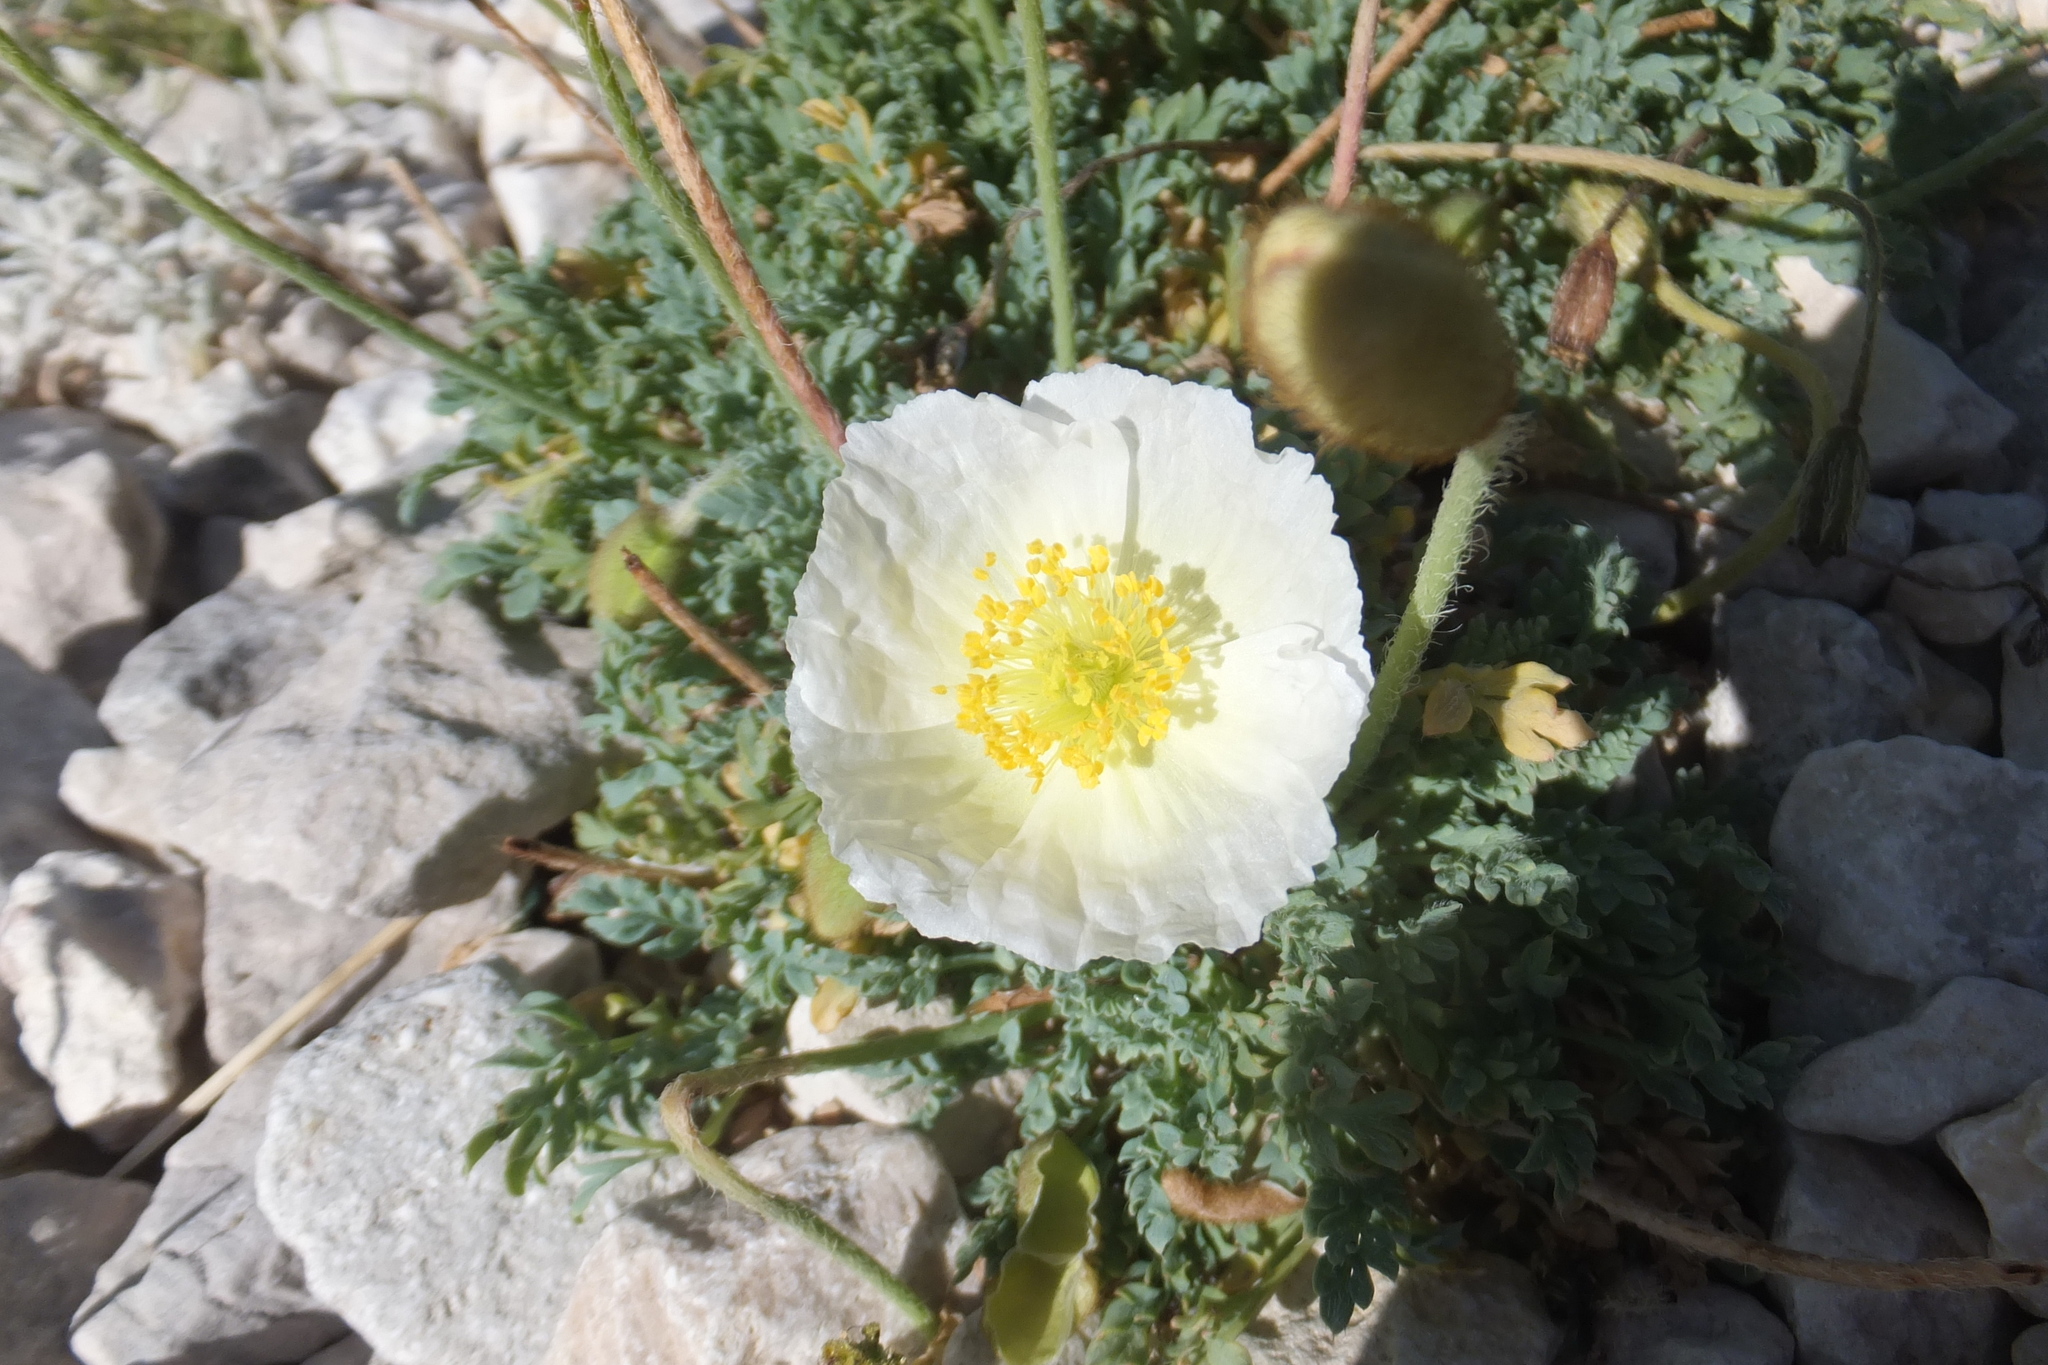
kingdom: Plantae
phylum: Tracheophyta
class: Magnoliopsida
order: Ranunculales
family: Papaveraceae
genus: Papaver
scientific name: Papaver alpinum
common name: Austrian poppy
